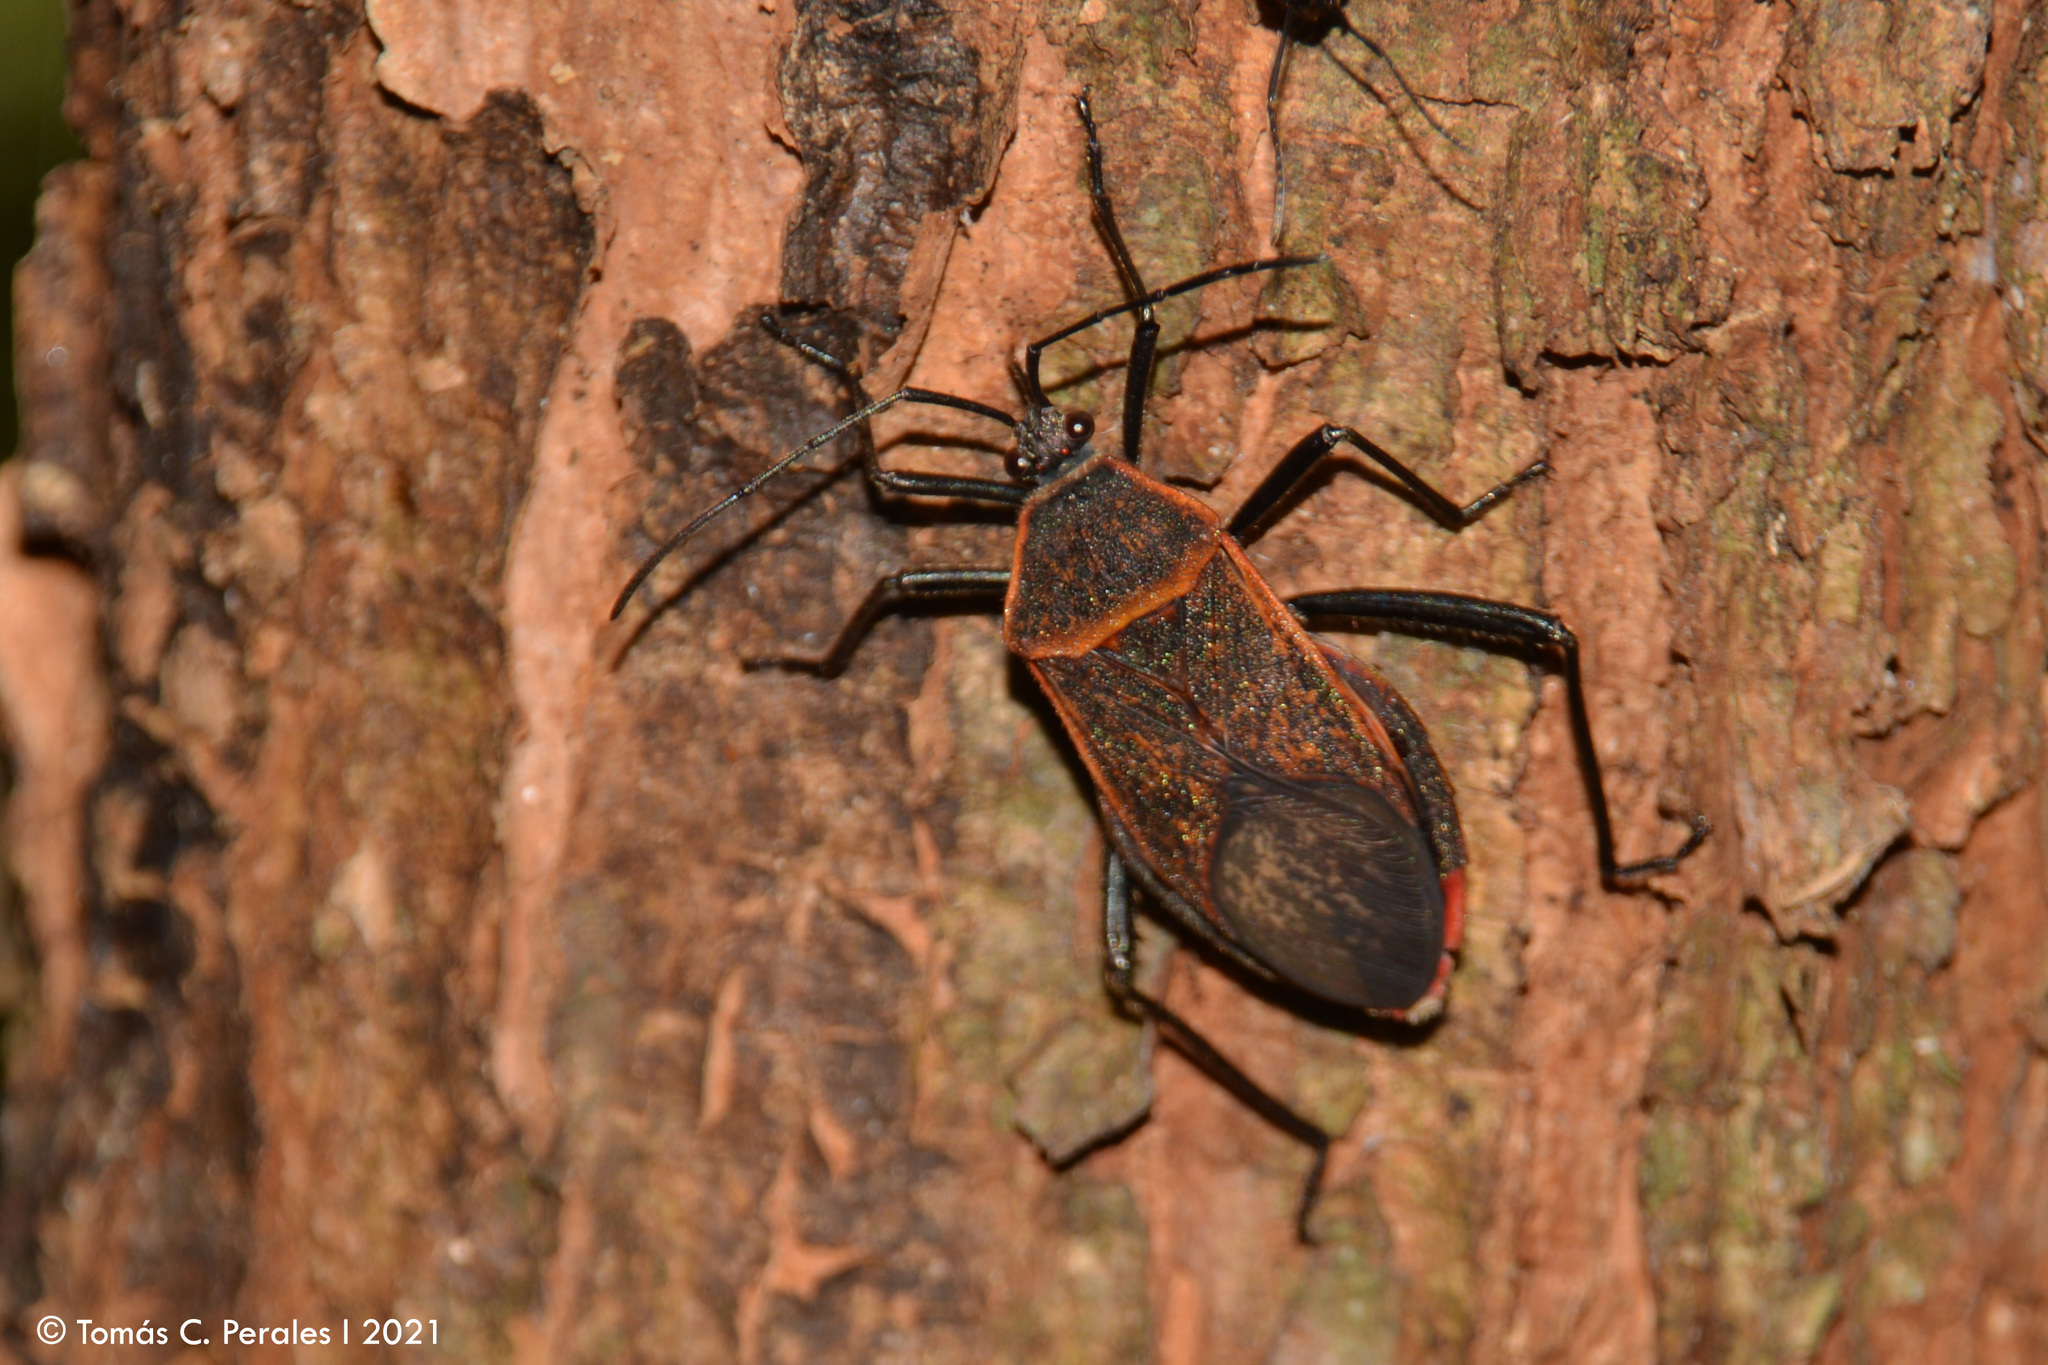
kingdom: Animalia
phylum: Arthropoda
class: Insecta
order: Hemiptera
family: Coreidae
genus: Laminiceps
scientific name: Laminiceps fenestratus
